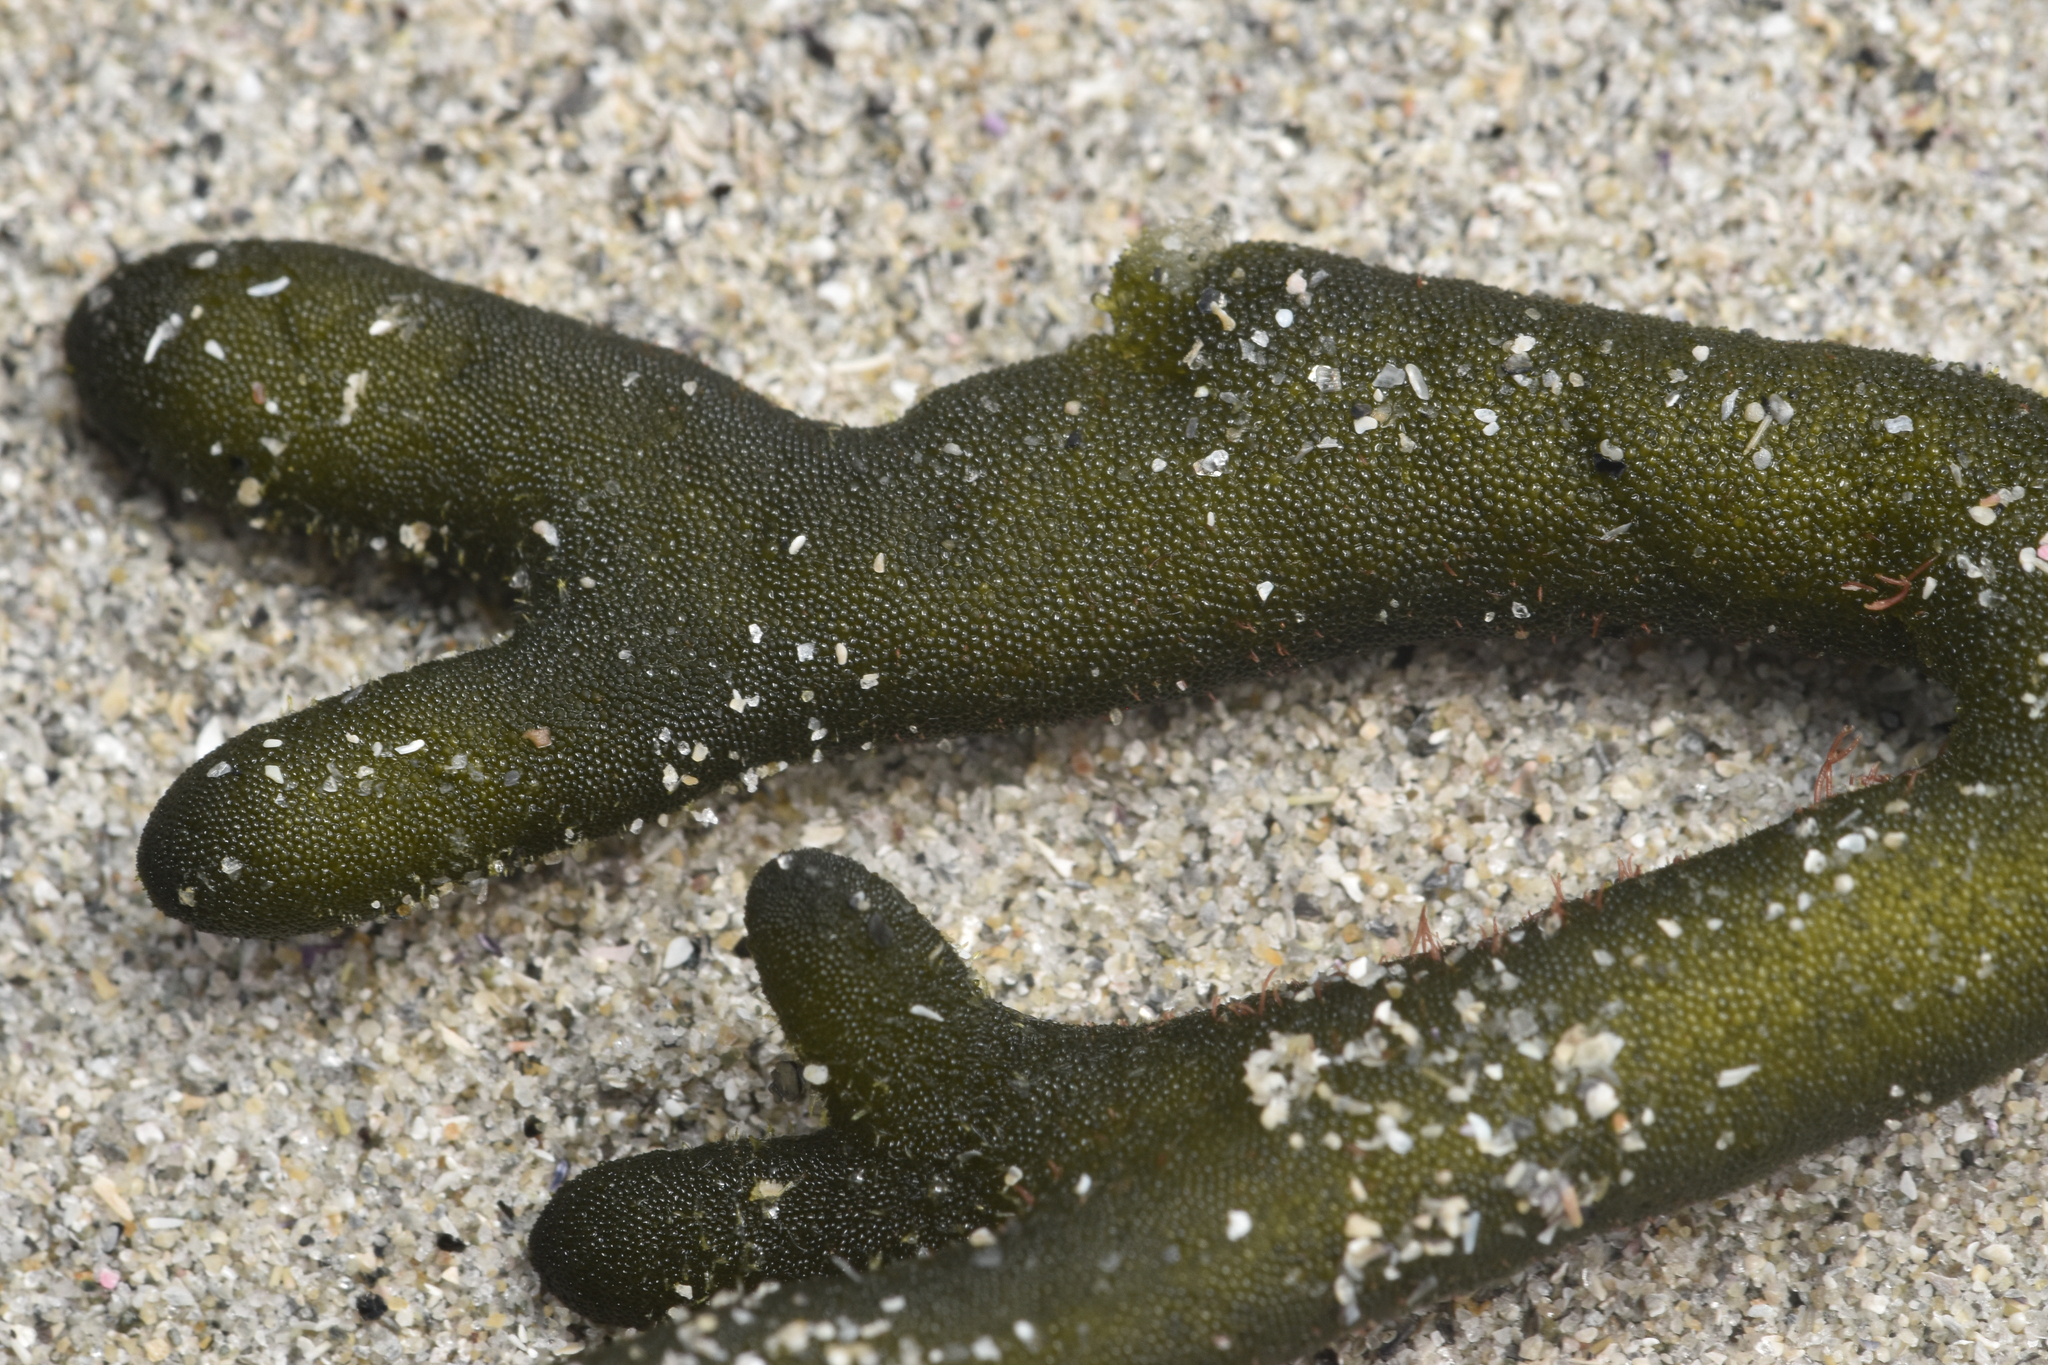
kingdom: Plantae
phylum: Chlorophyta
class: Ulvophyceae
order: Bryopsidales
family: Codiaceae
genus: Codium
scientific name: Codium fragile
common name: Dead man's fingers
